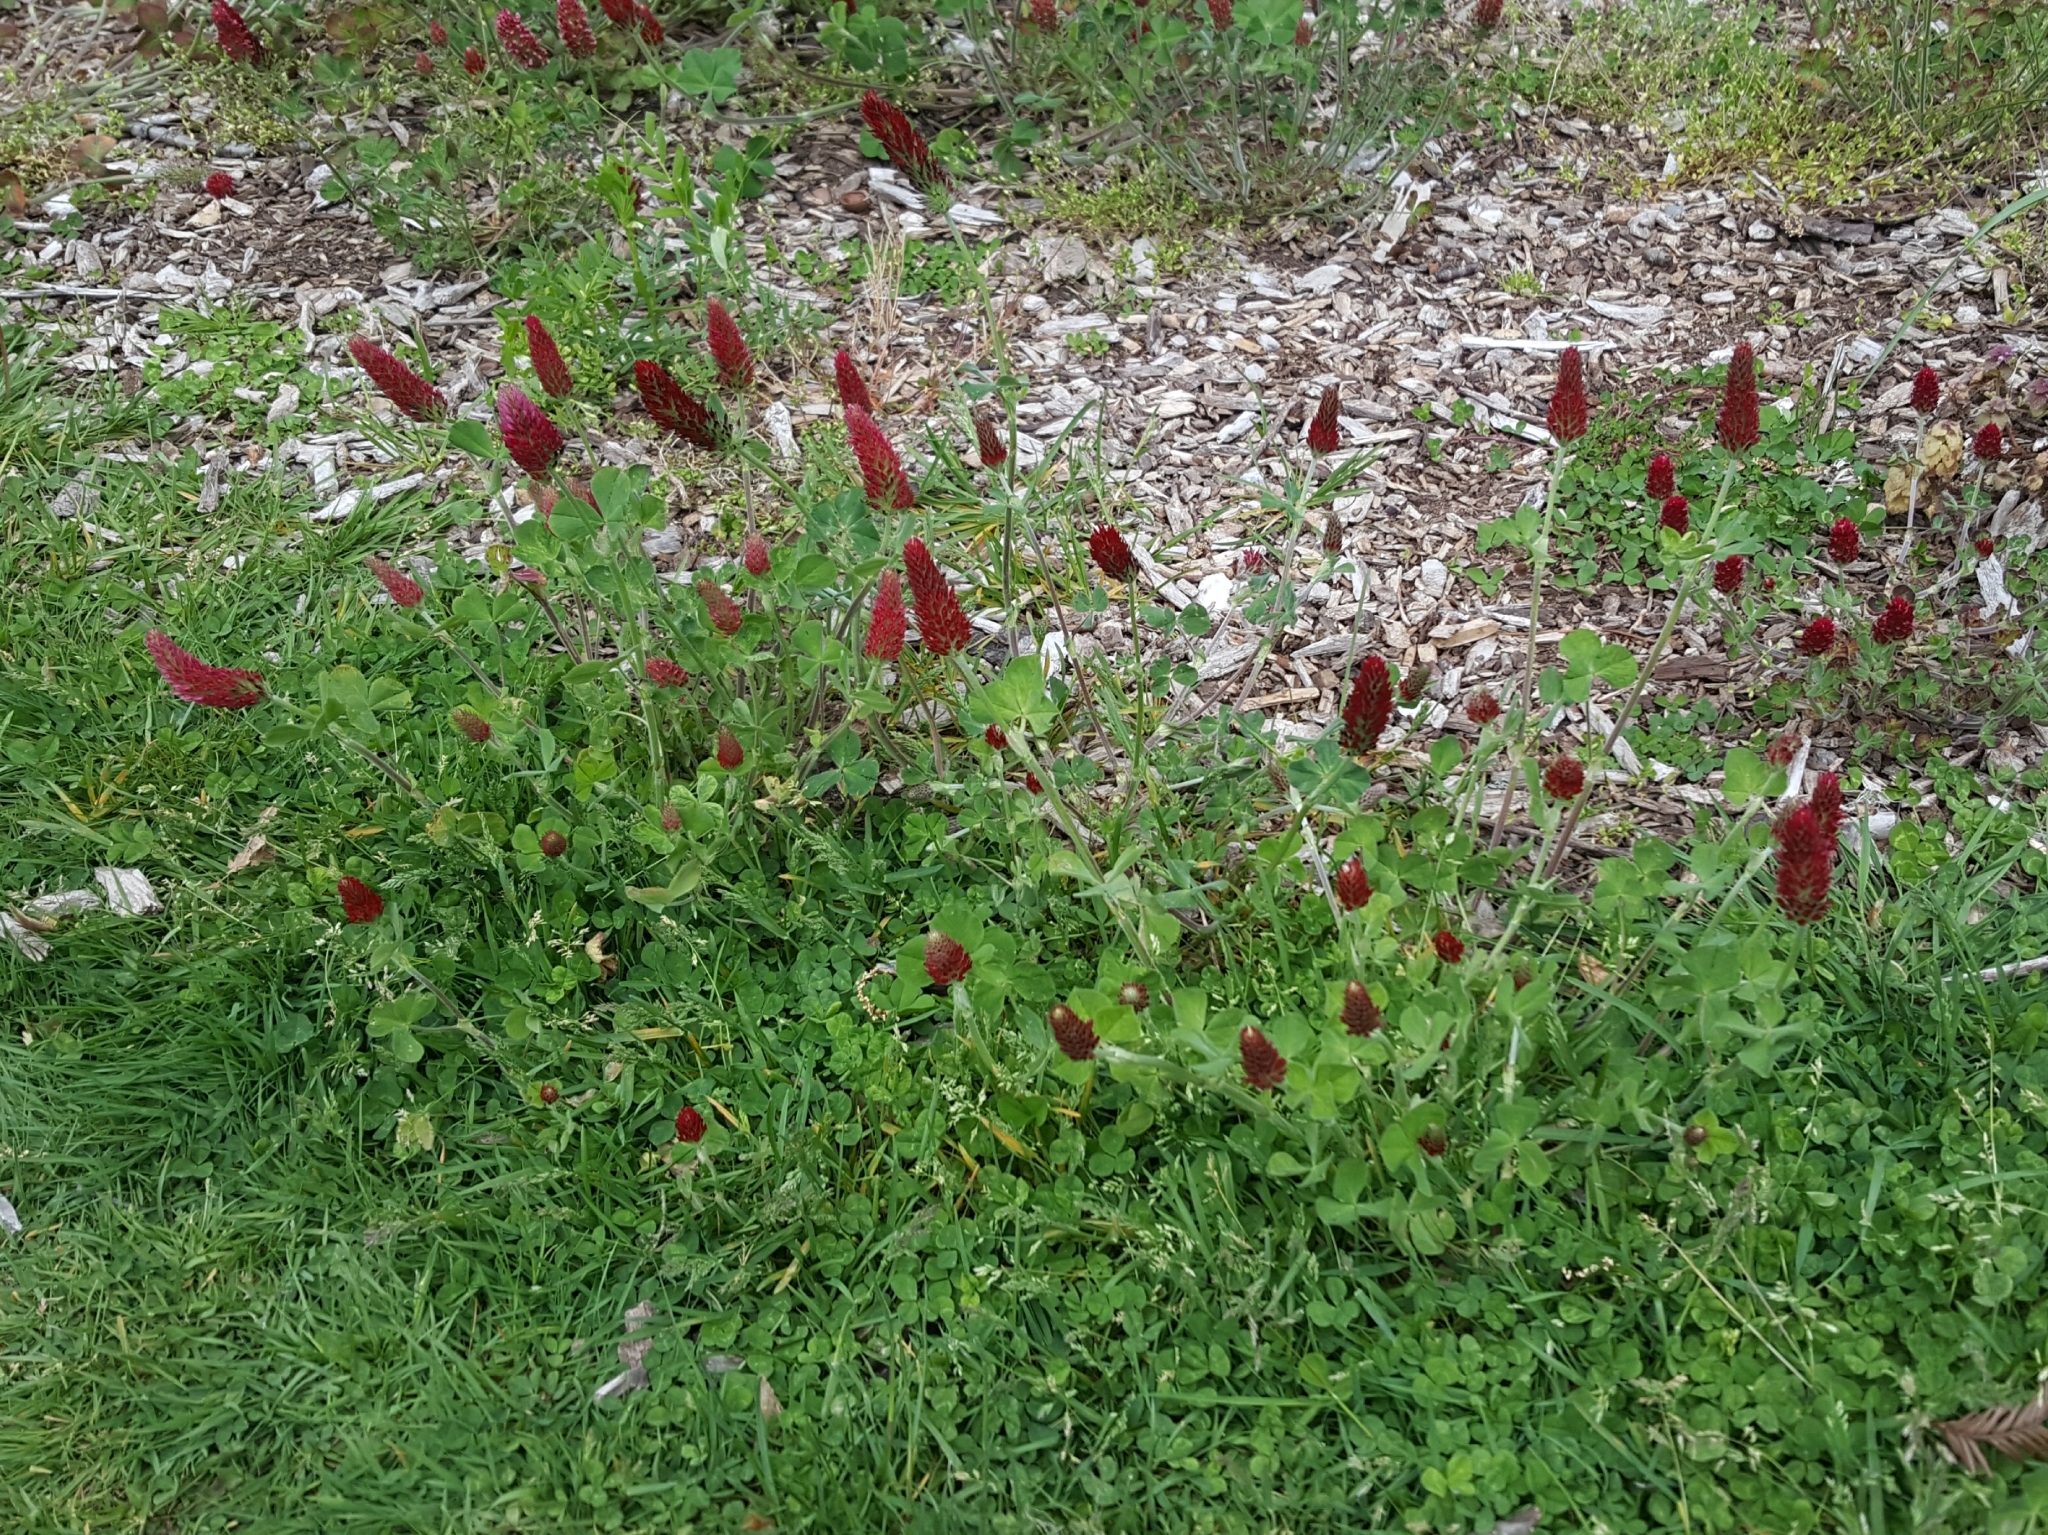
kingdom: Plantae
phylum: Tracheophyta
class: Magnoliopsida
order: Fabales
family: Fabaceae
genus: Trifolium
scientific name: Trifolium incarnatum
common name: Crimson clover
